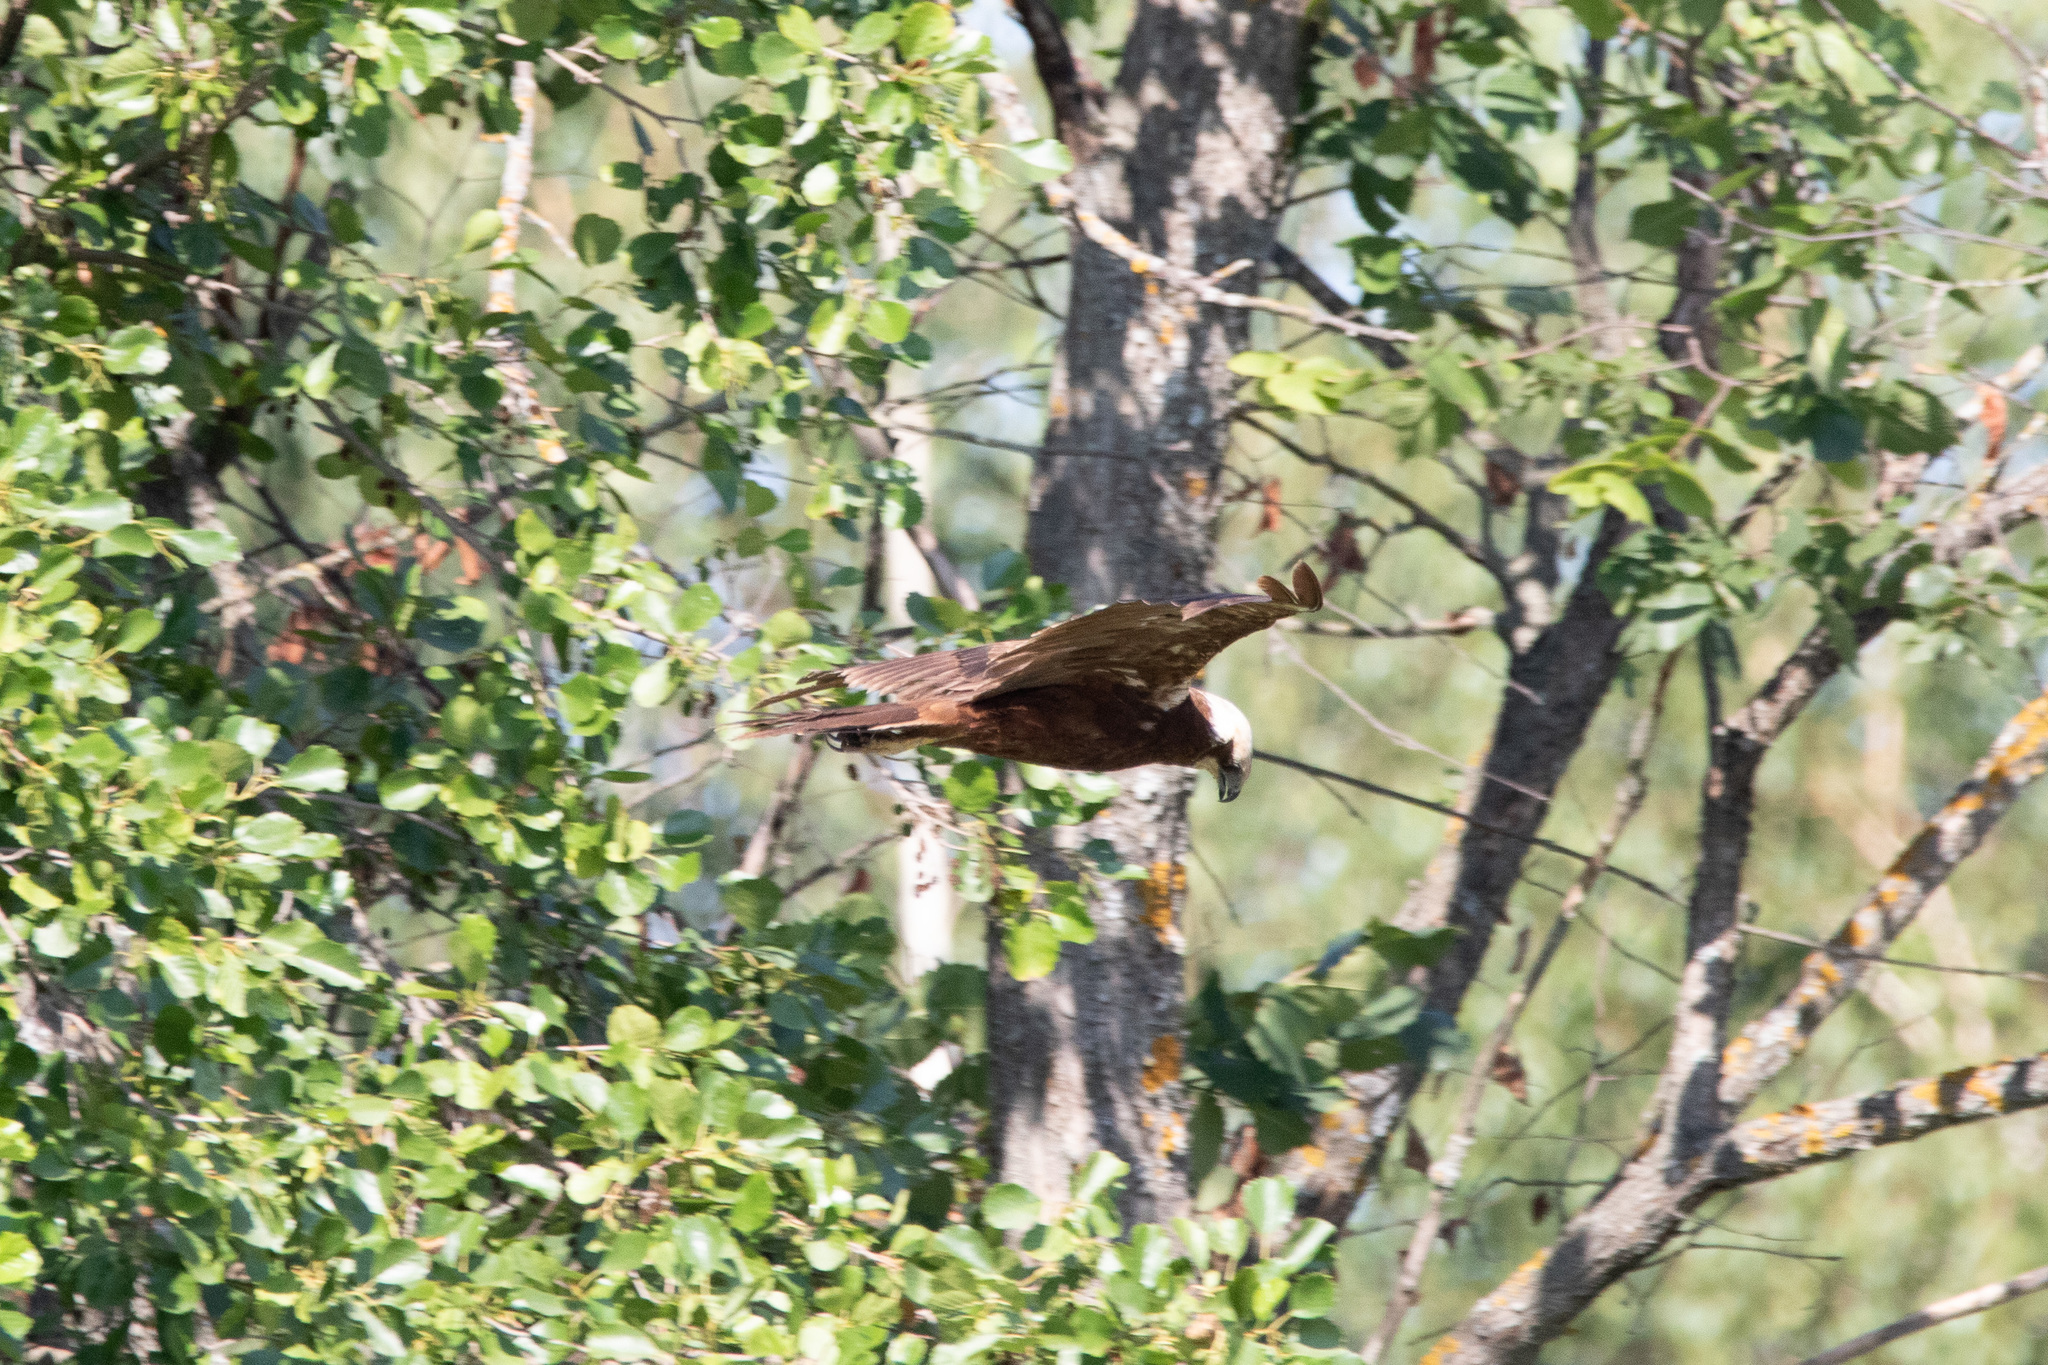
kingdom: Animalia
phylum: Chordata
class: Aves
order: Accipitriformes
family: Accipitridae
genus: Circus
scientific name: Circus aeruginosus
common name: Western marsh harrier
